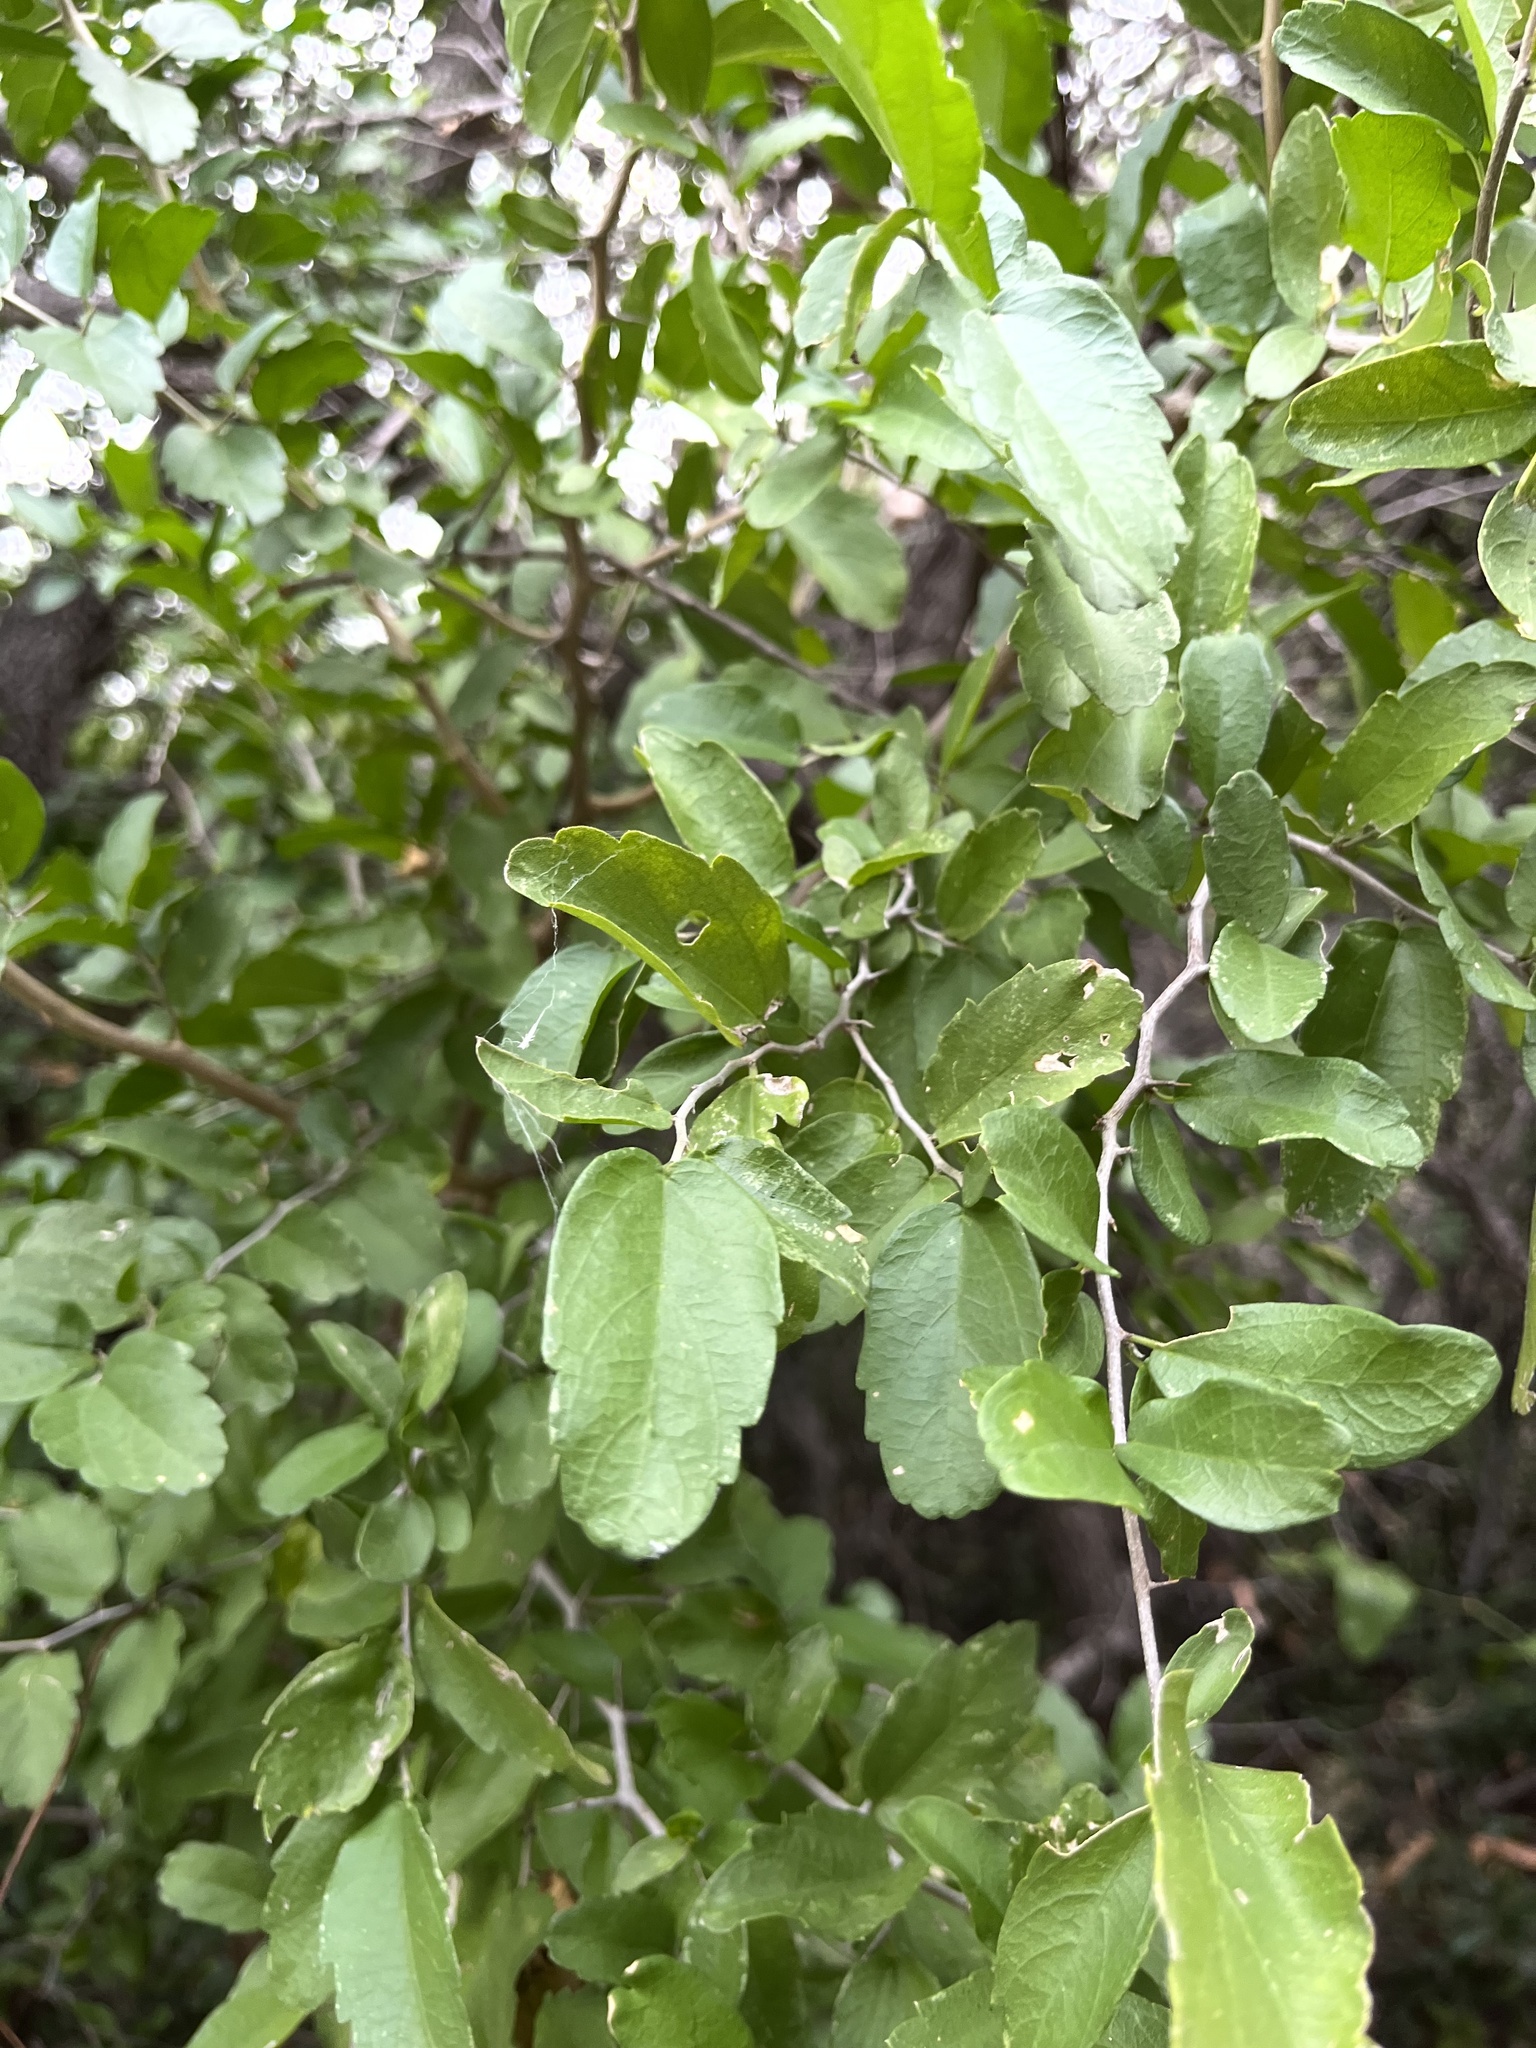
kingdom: Plantae
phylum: Tracheophyta
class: Magnoliopsida
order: Rosales
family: Cannabaceae
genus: Celtis
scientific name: Celtis pallida
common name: Desert hackberry
